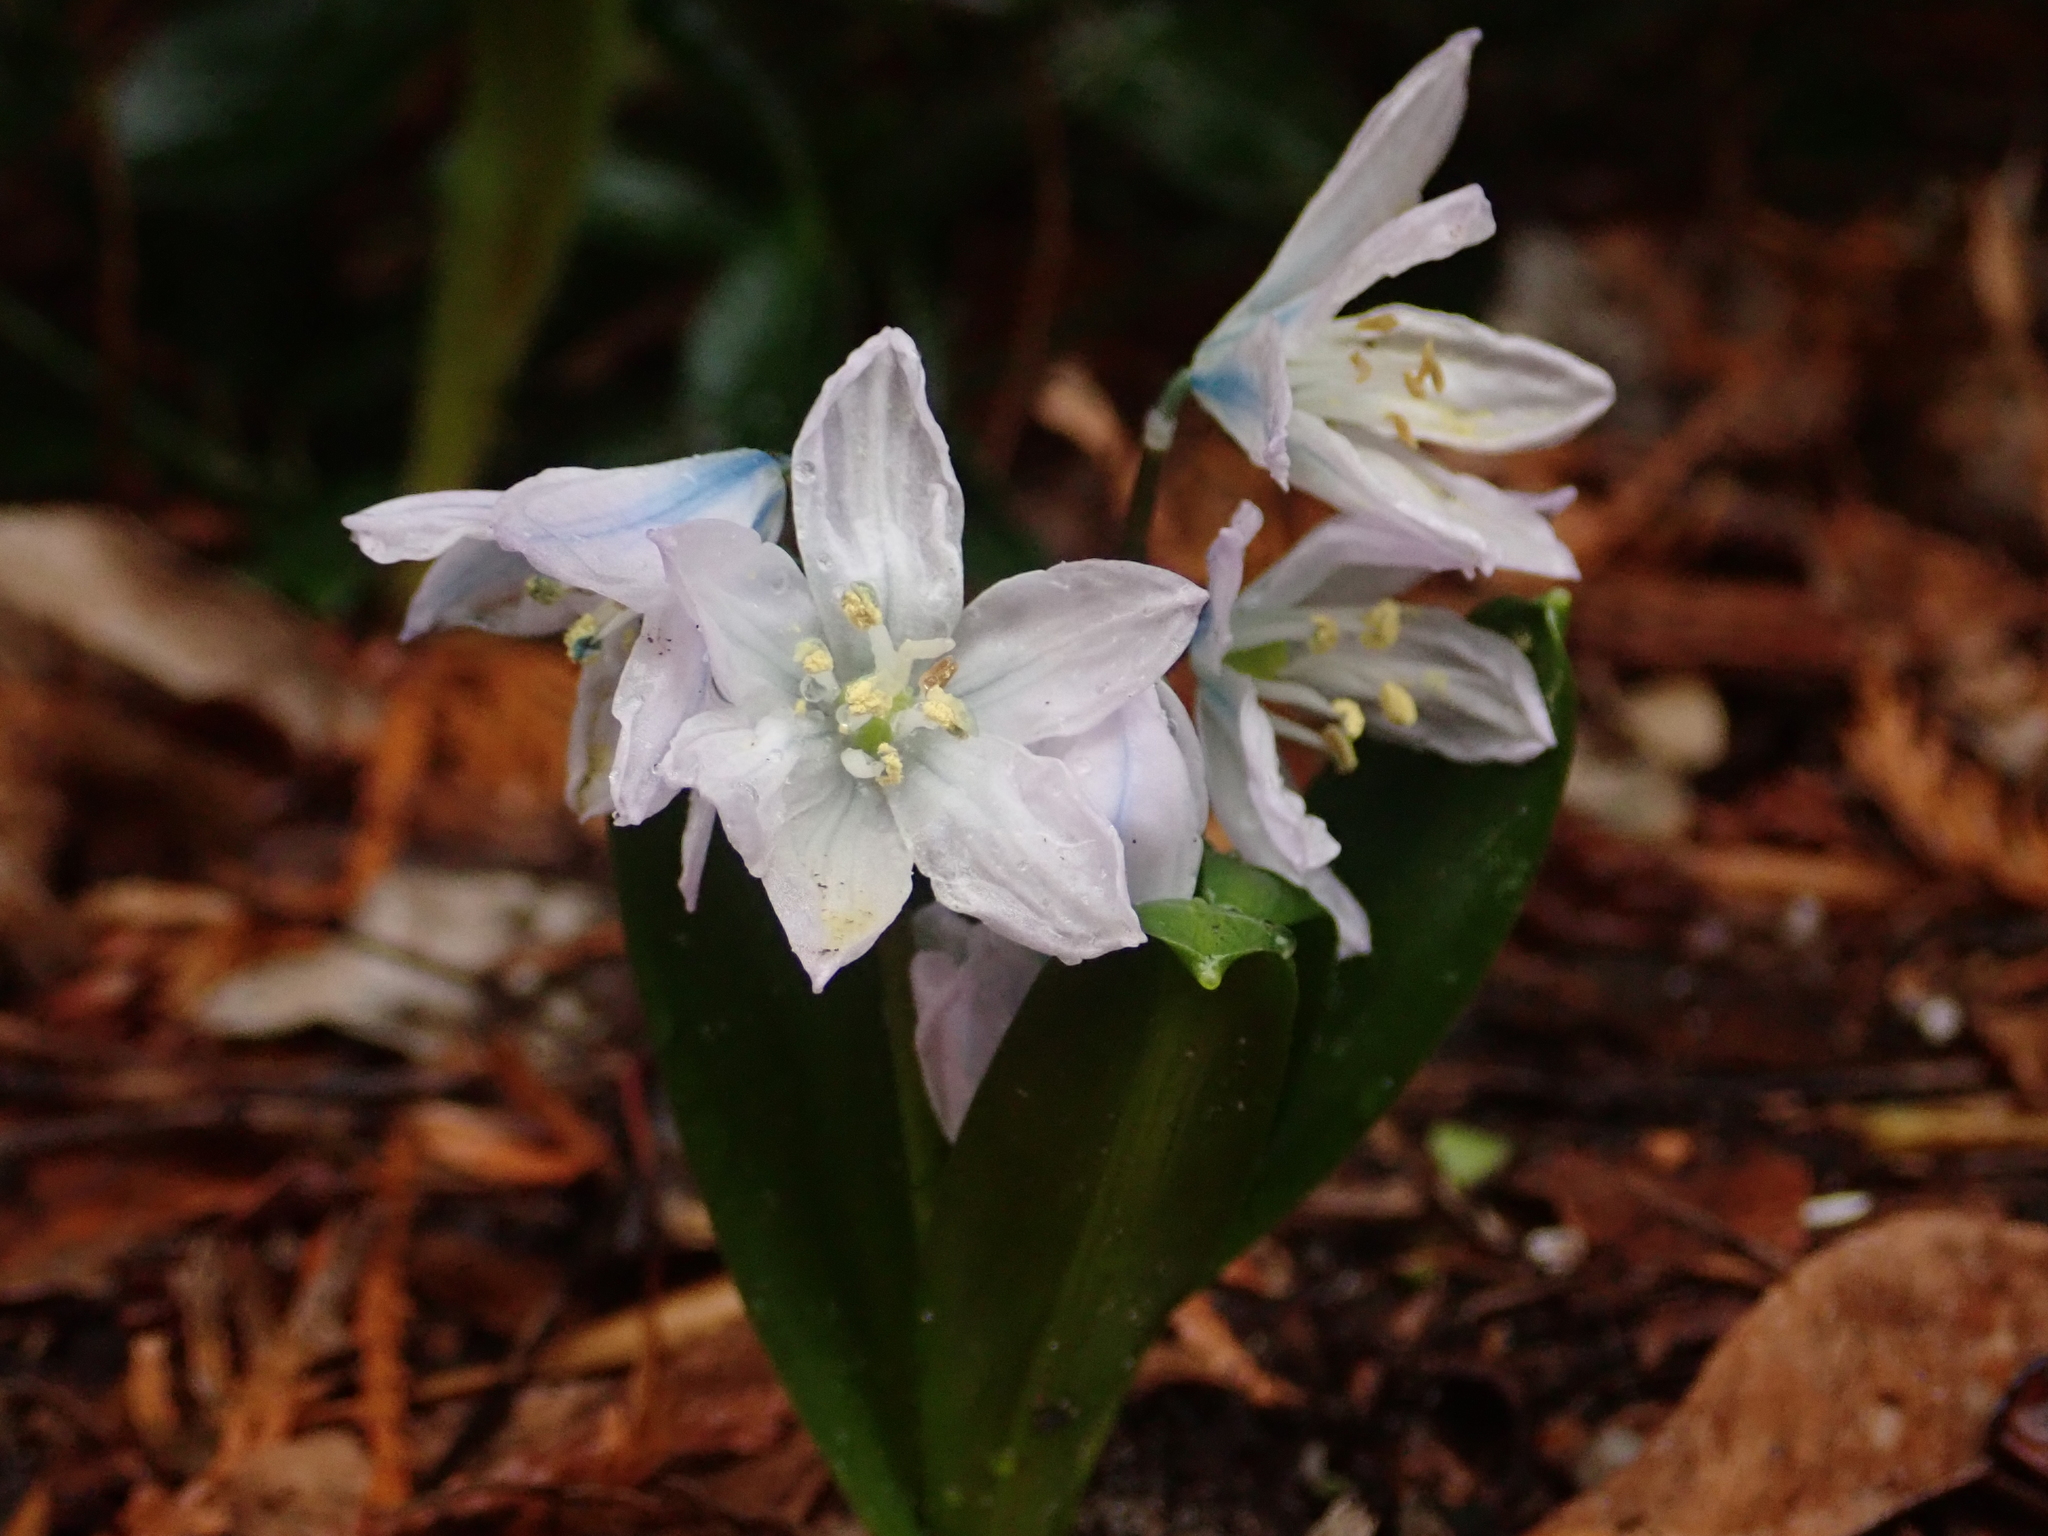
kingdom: Plantae
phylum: Tracheophyta
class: Liliopsida
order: Asparagales
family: Asparagaceae
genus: Scilla
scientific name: Scilla mischtschenkoana
